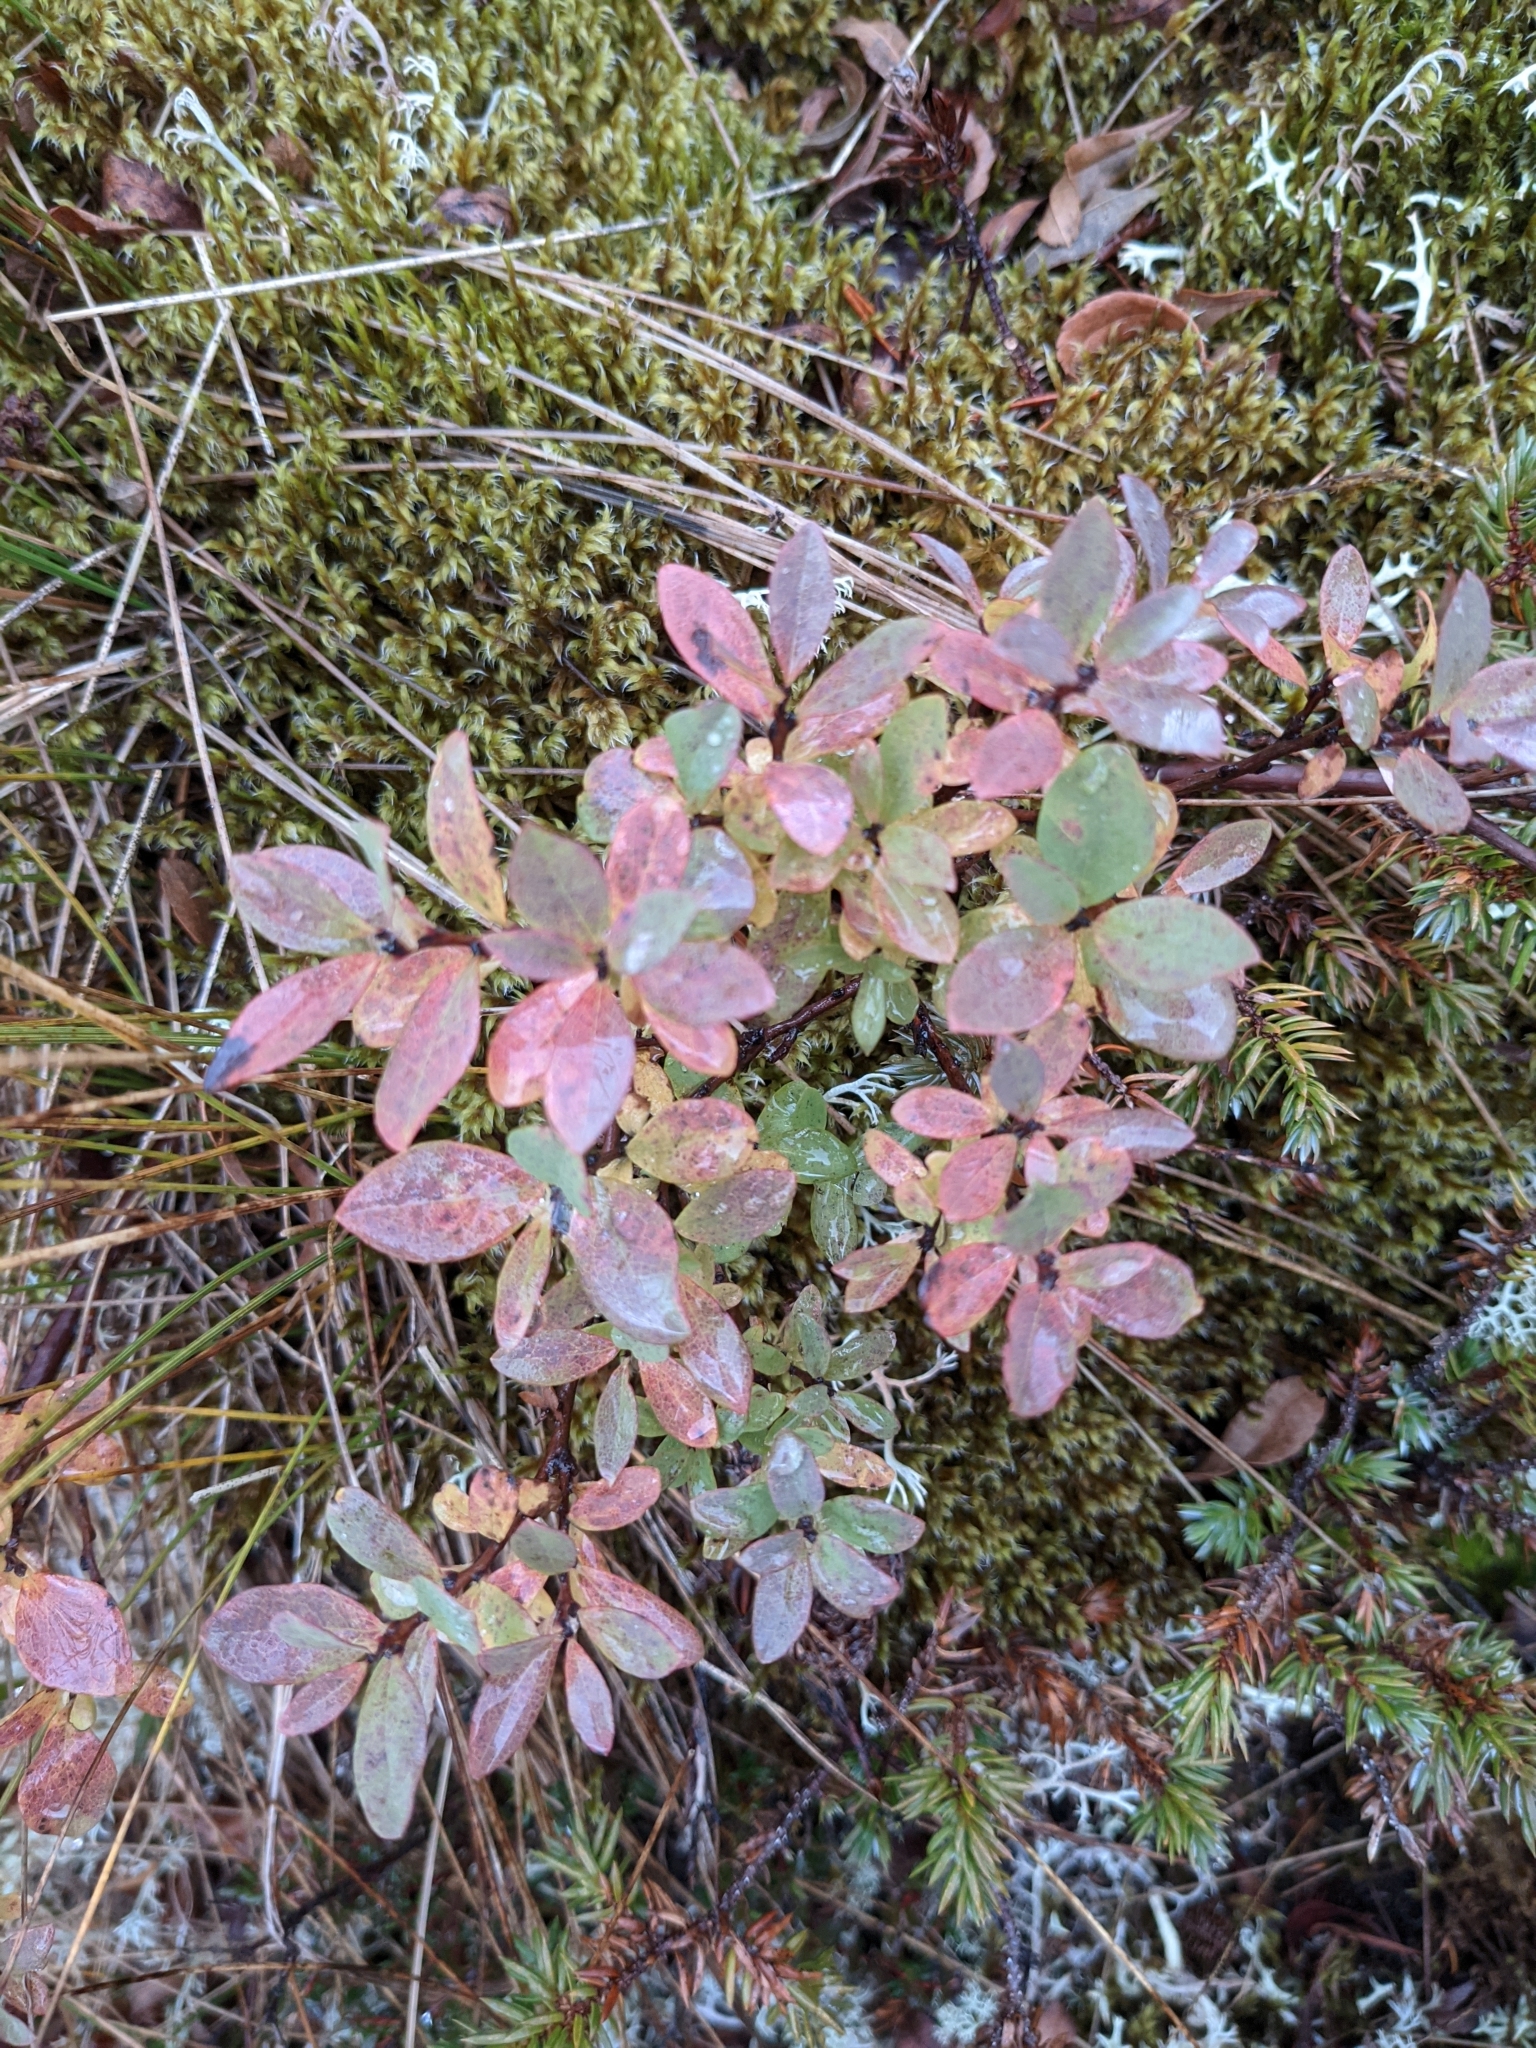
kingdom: Plantae
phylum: Tracheophyta
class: Magnoliopsida
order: Ericales
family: Ericaceae
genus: Vaccinium
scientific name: Vaccinium uliginosum
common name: Bog bilberry
